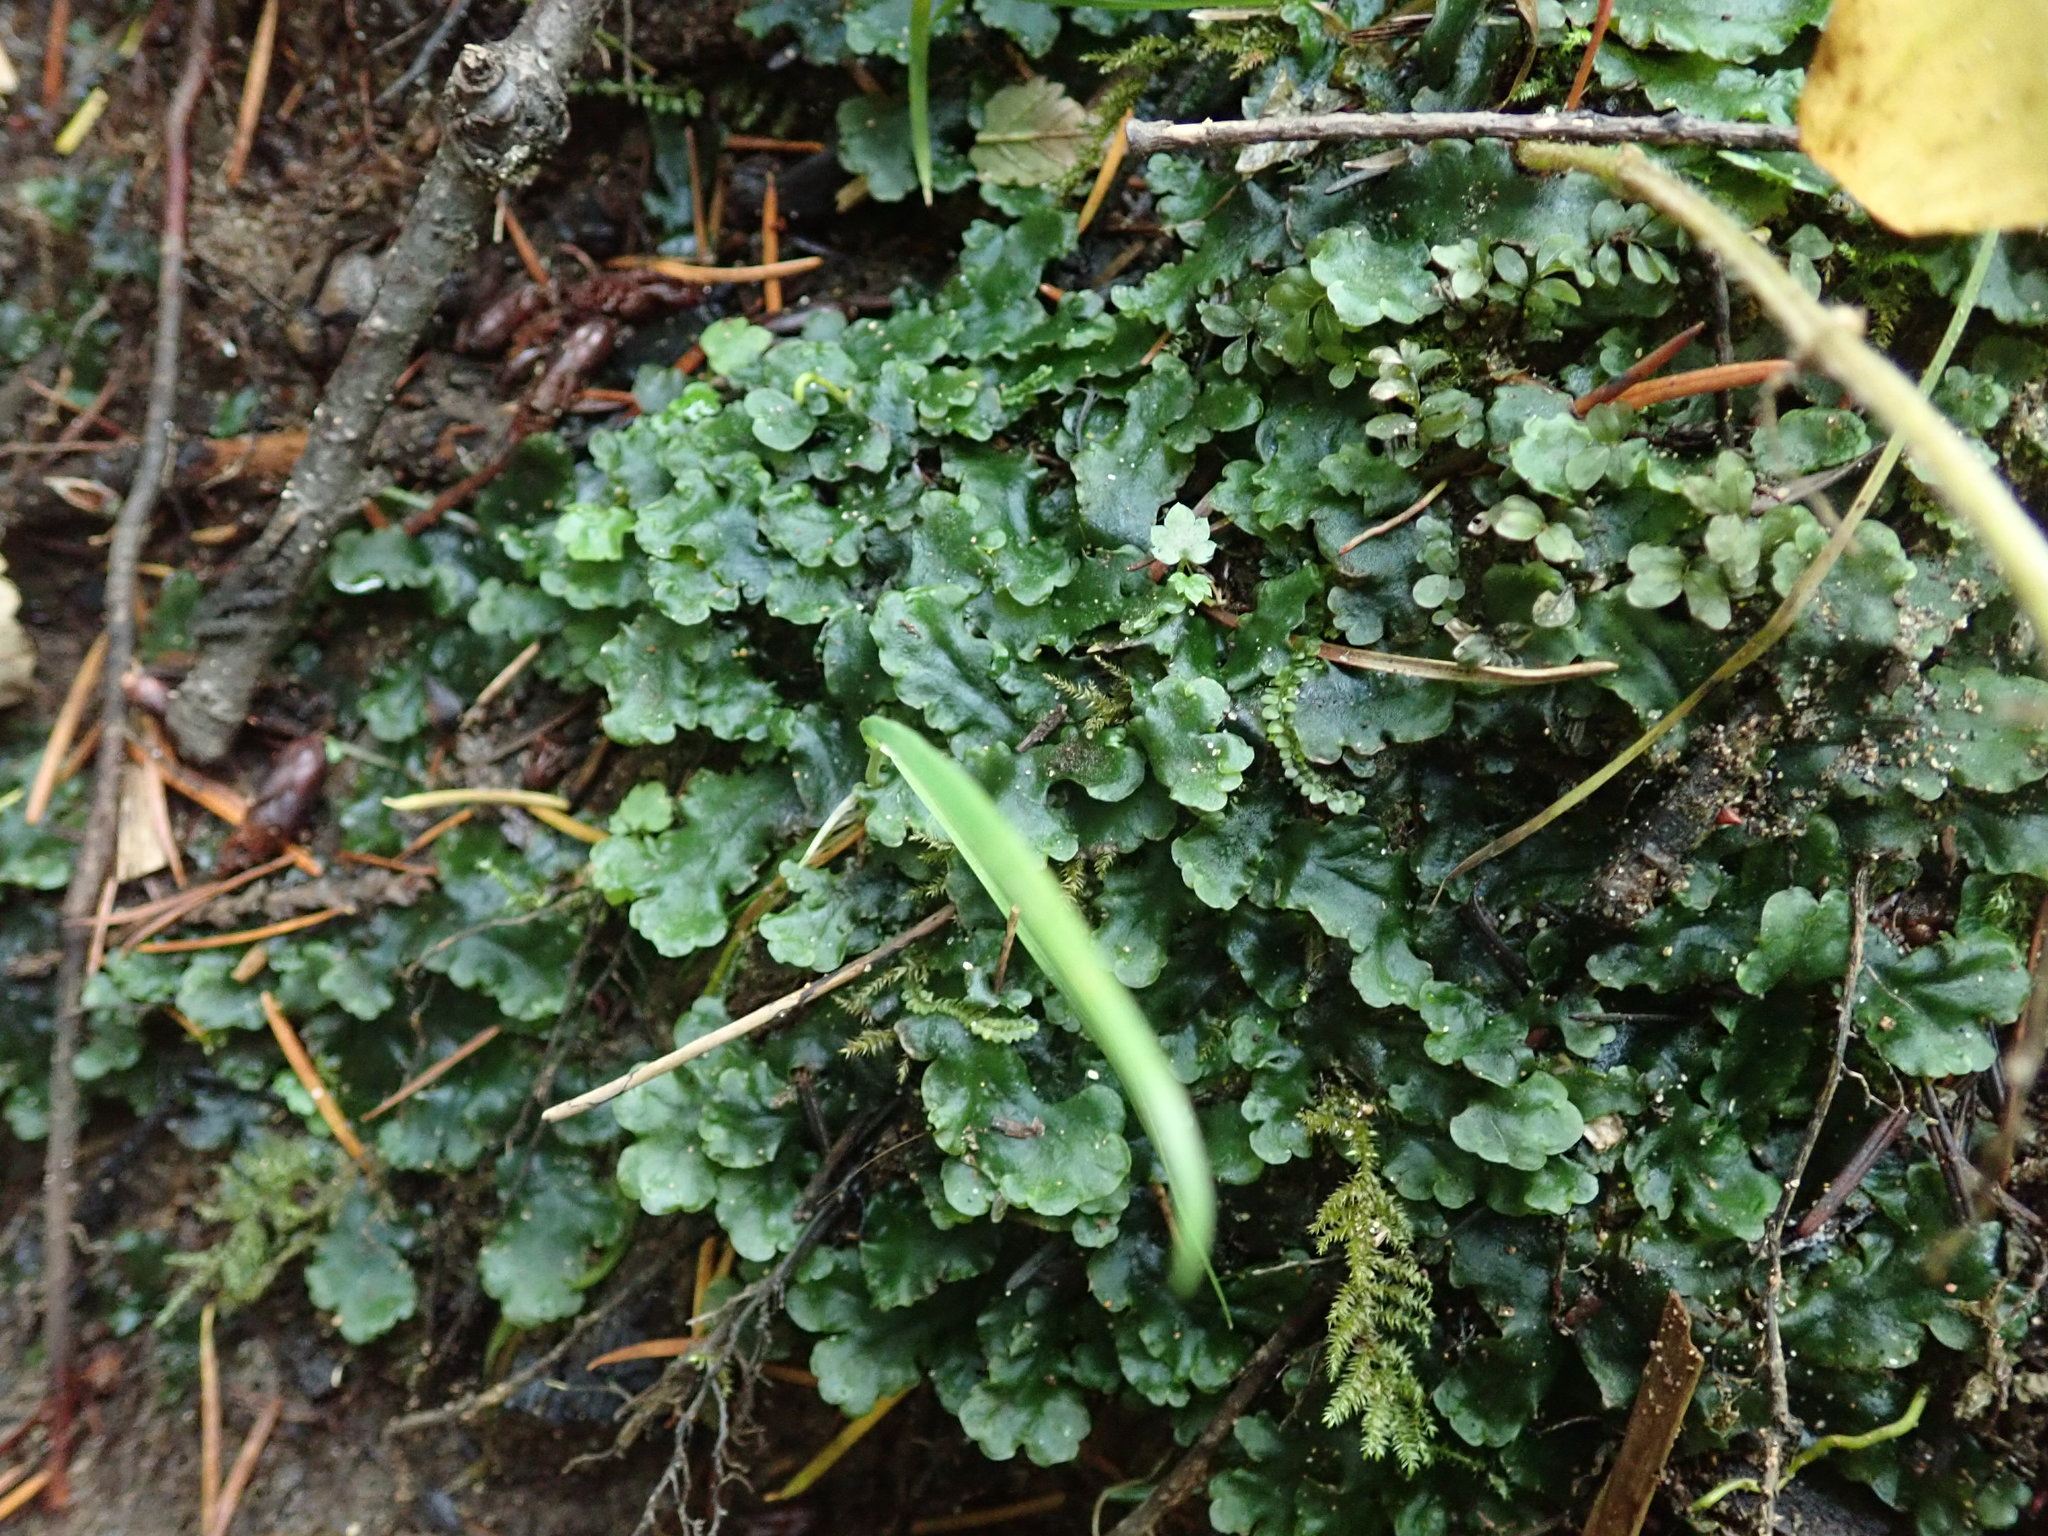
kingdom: Plantae
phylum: Marchantiophyta
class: Jungermanniopsida
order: Pelliales
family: Pelliaceae
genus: Pellia
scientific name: Pellia neesiana
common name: Nees  pellia
